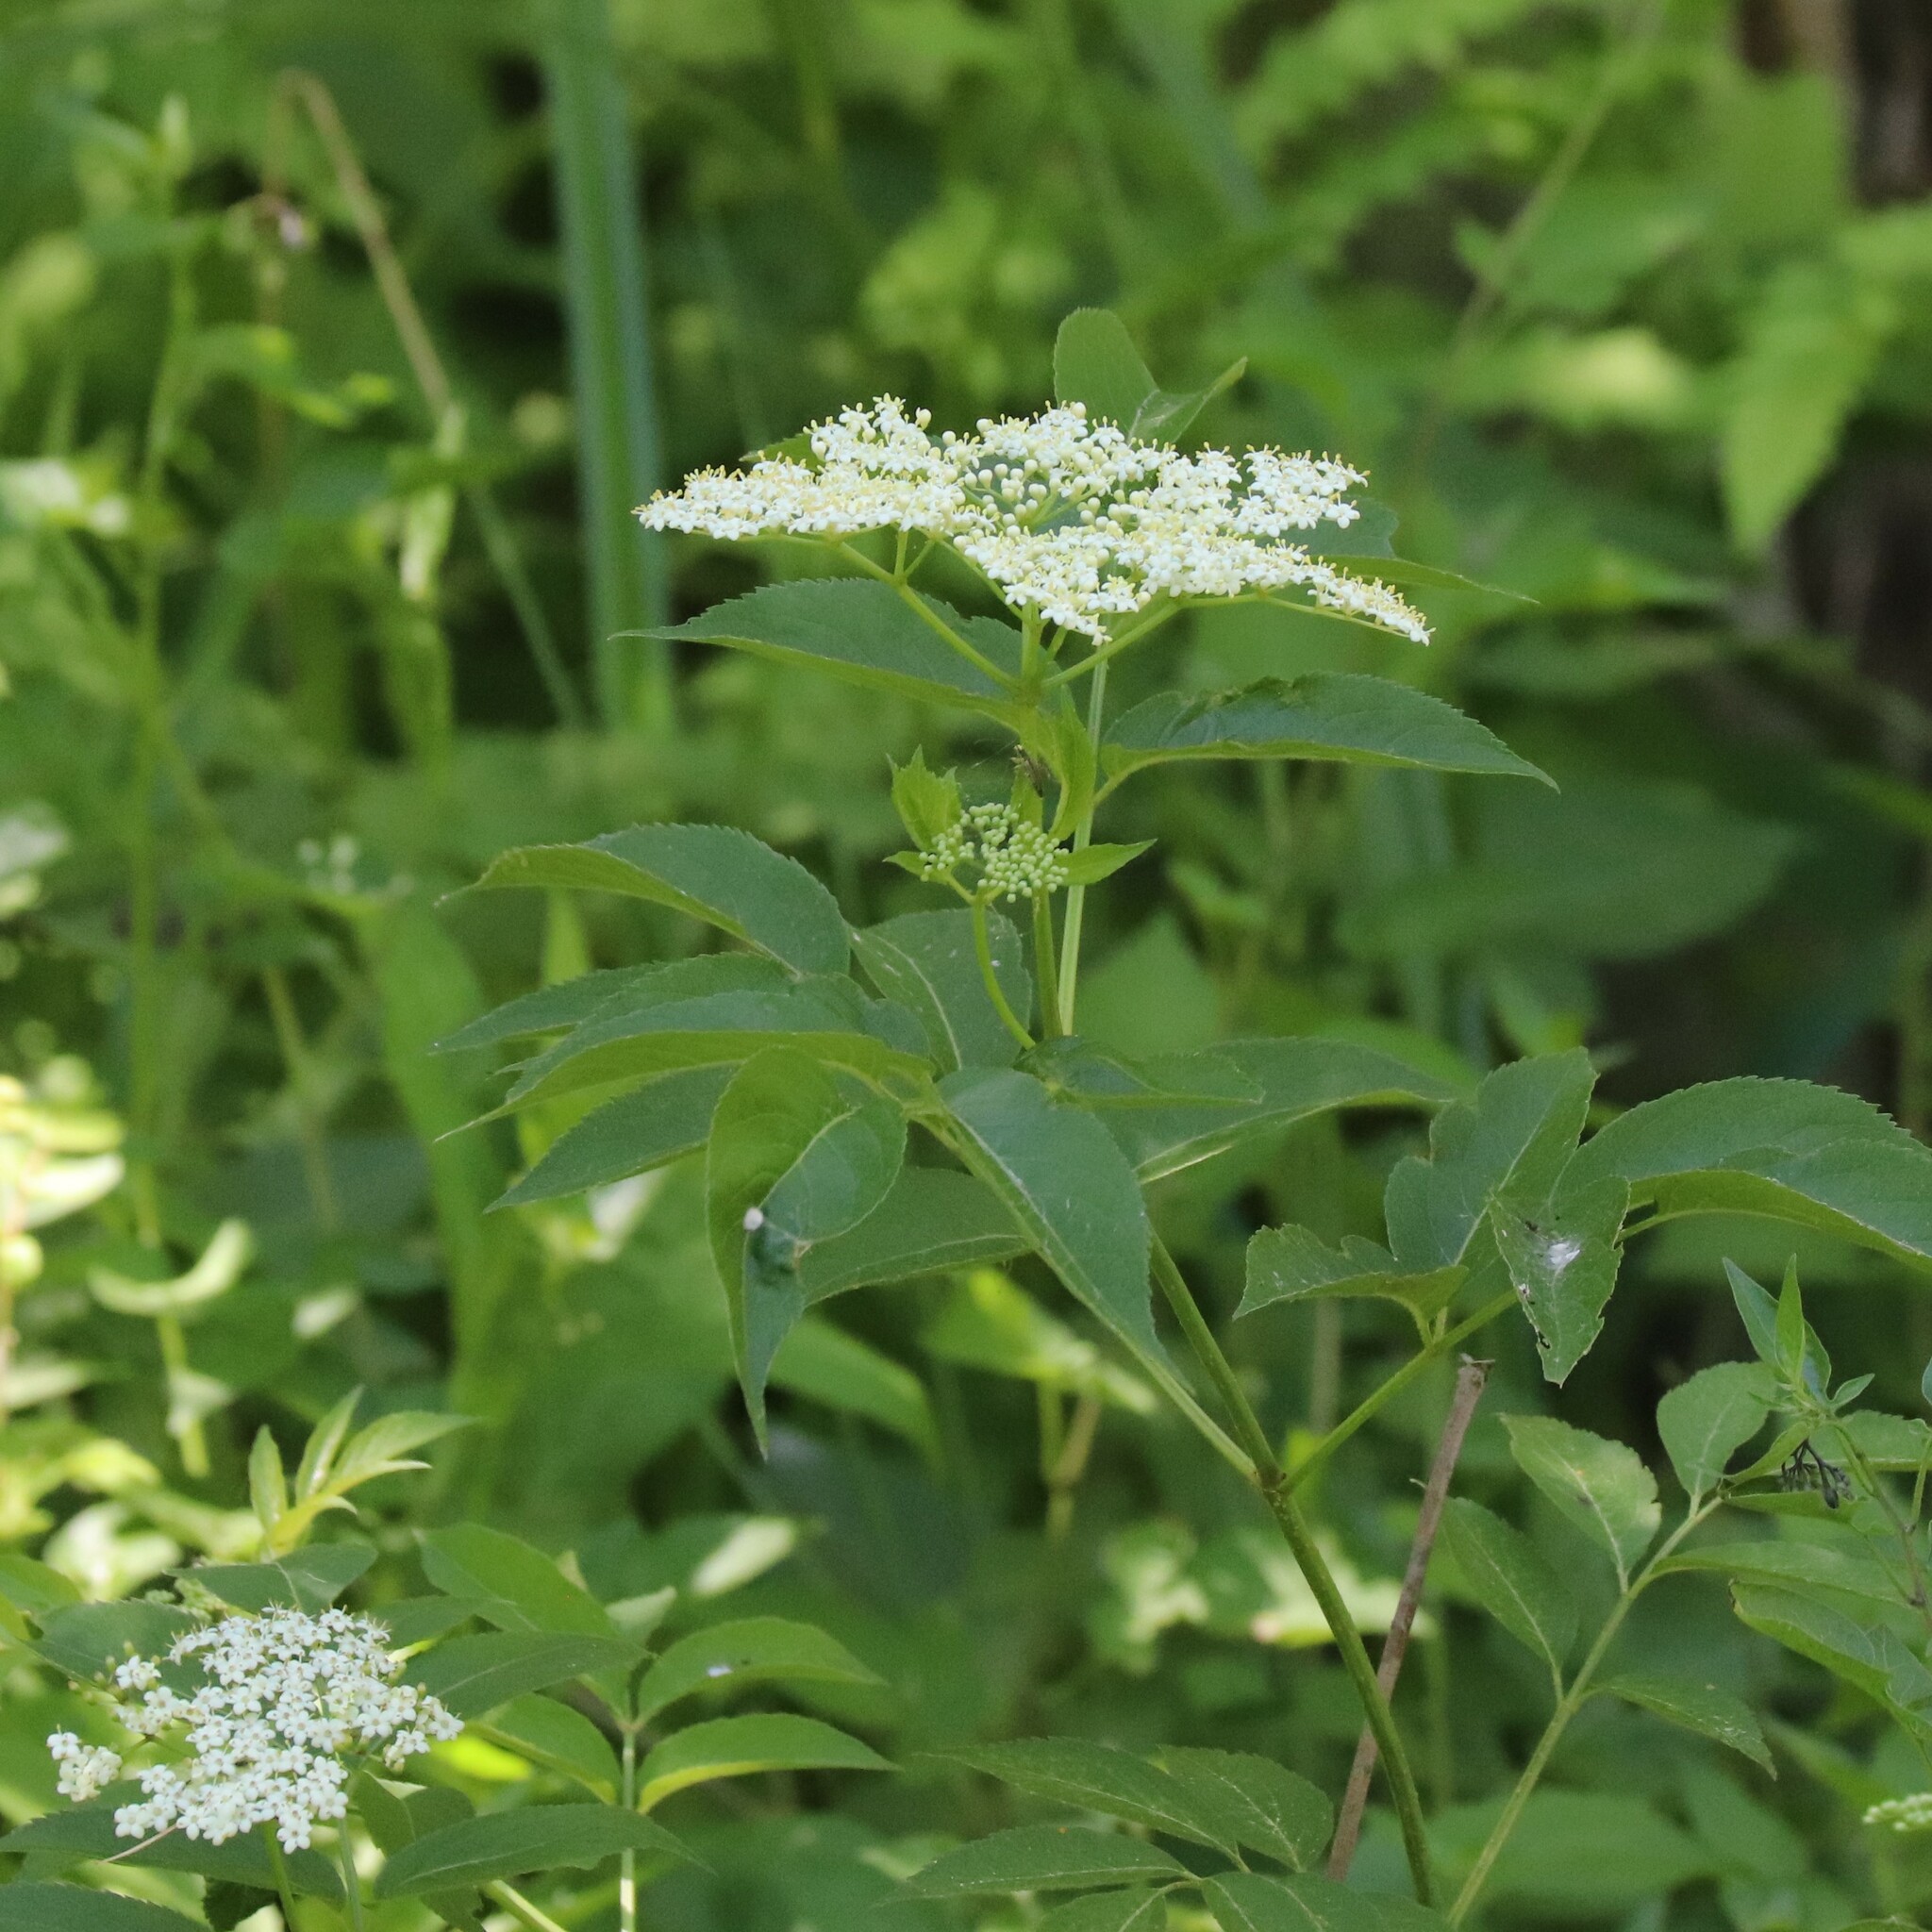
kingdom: Plantae
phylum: Tracheophyta
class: Magnoliopsida
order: Dipsacales
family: Viburnaceae
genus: Sambucus
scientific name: Sambucus canadensis
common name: American elder
